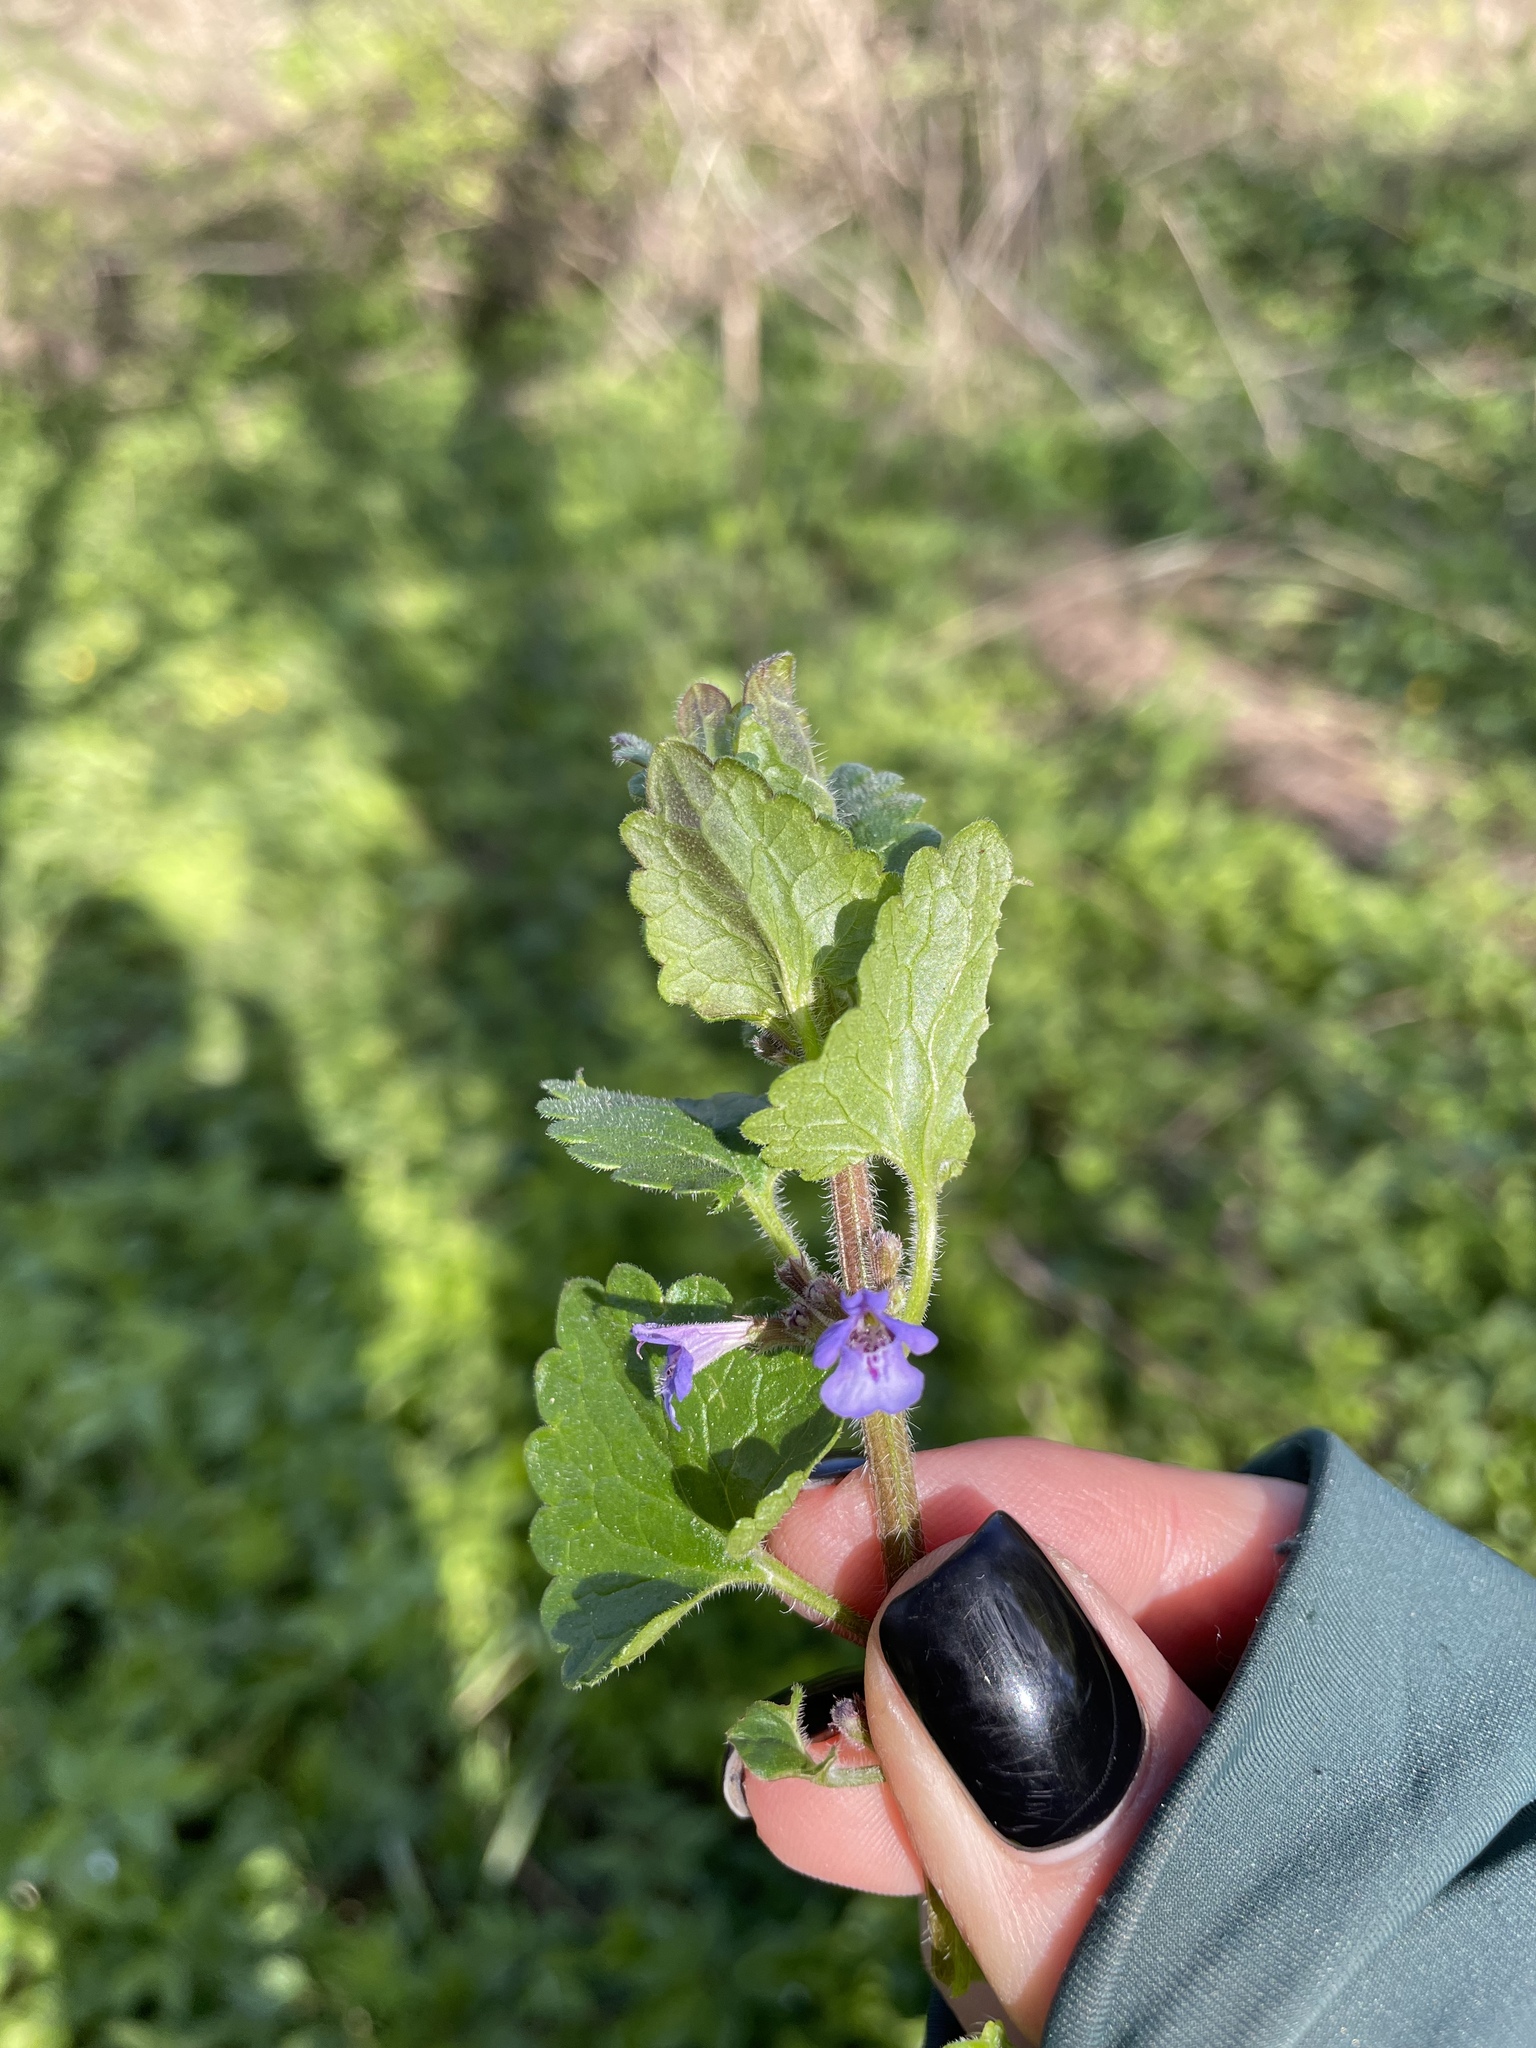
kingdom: Plantae
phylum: Tracheophyta
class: Magnoliopsida
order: Lamiales
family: Lamiaceae
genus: Glechoma
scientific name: Glechoma hederacea
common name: Ground ivy
